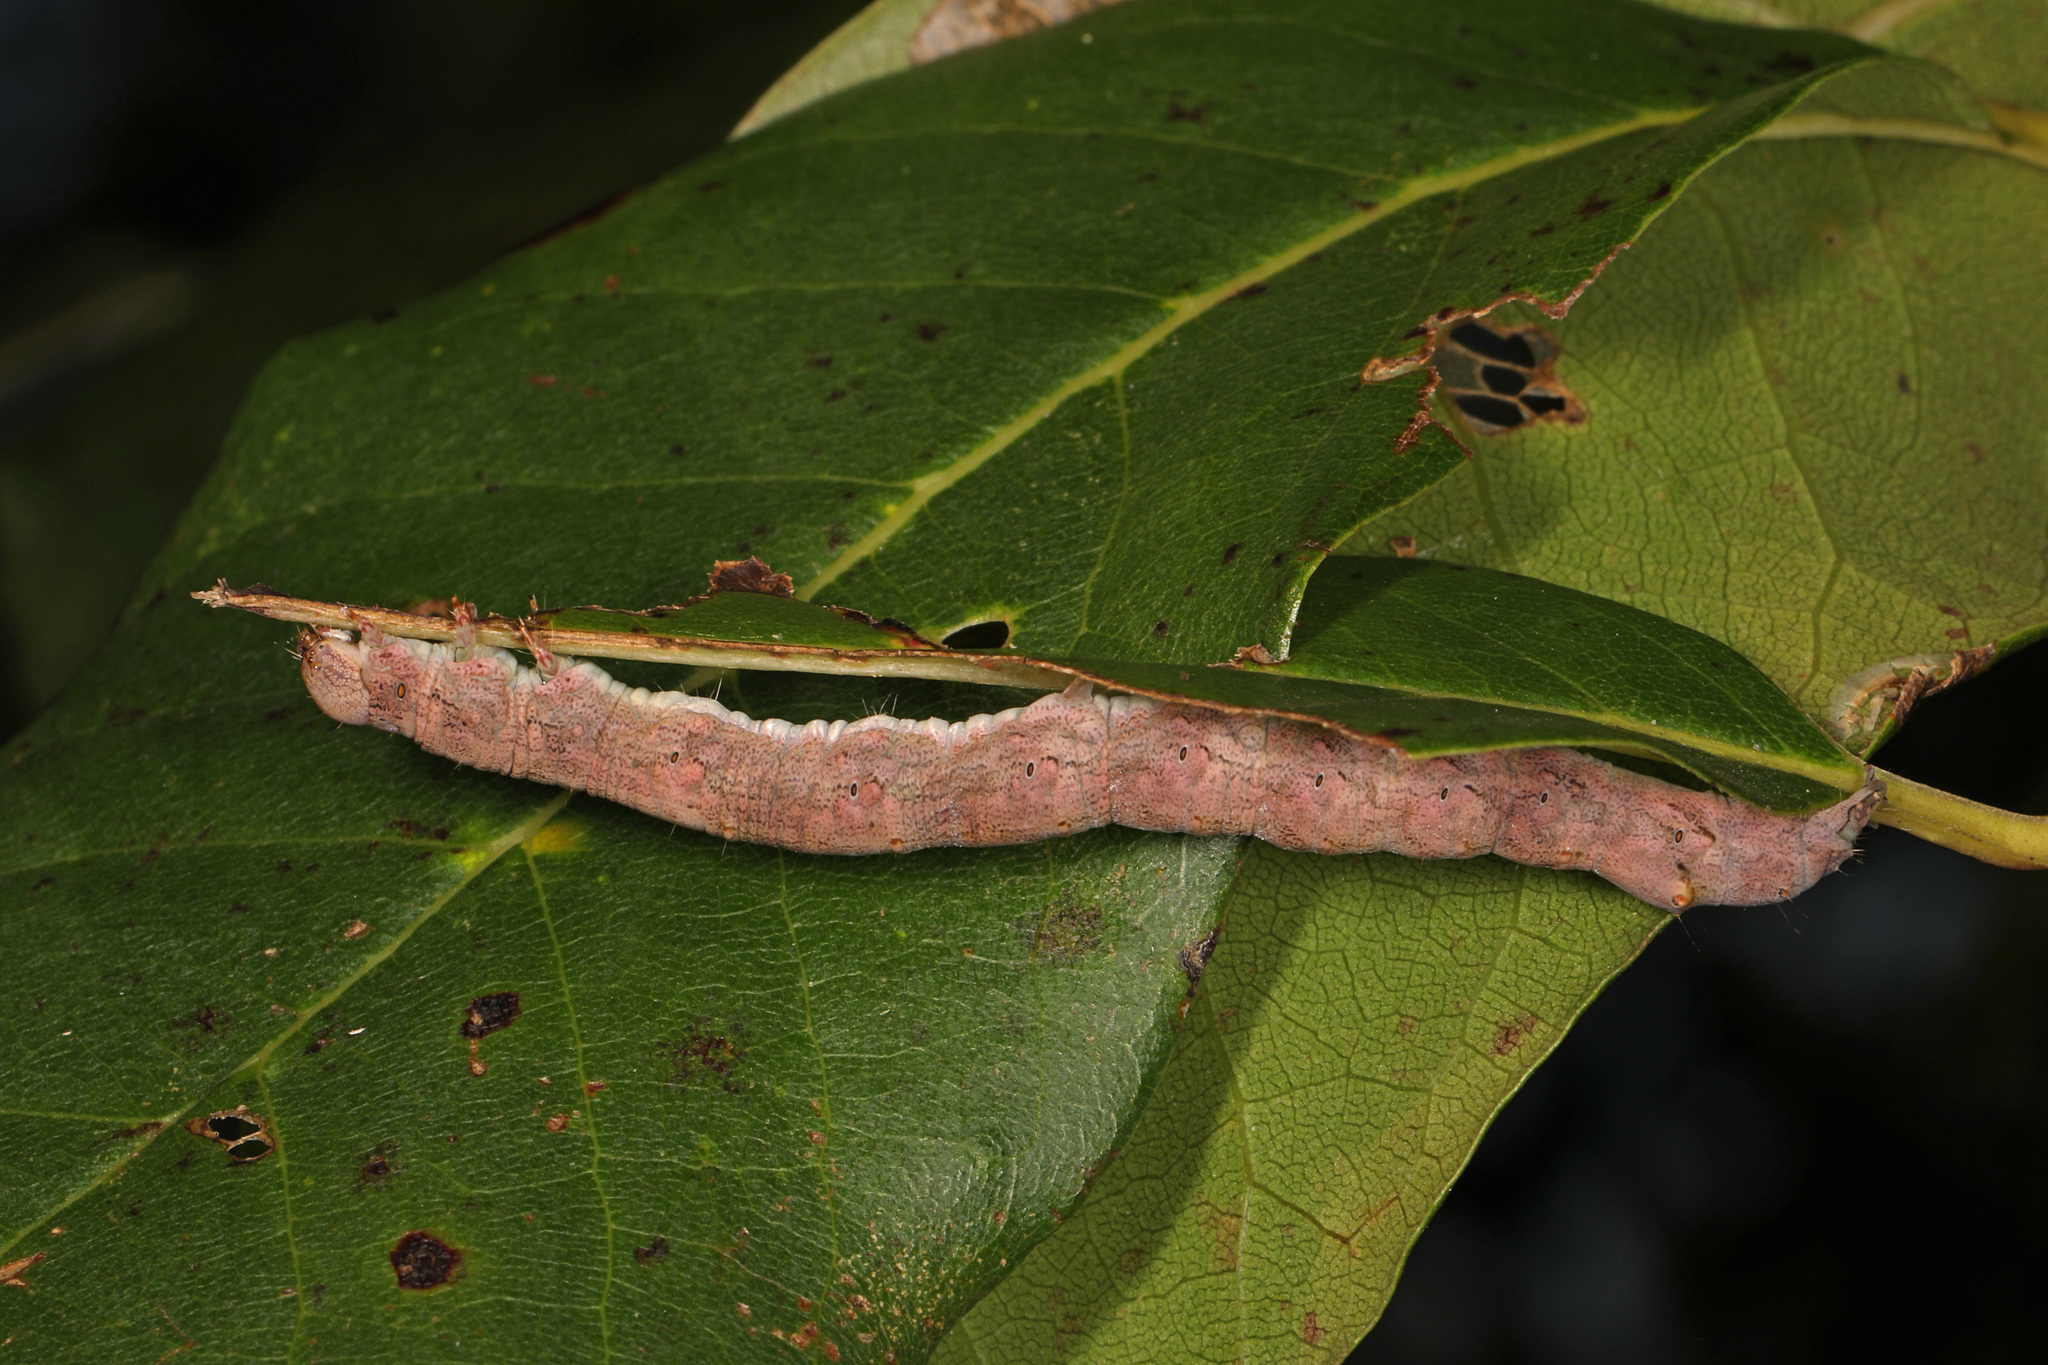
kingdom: Animalia
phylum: Arthropoda
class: Insecta
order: Lepidoptera
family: Geometridae
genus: Ennomos
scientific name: Ennomos magnaria
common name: Maple spanworm
